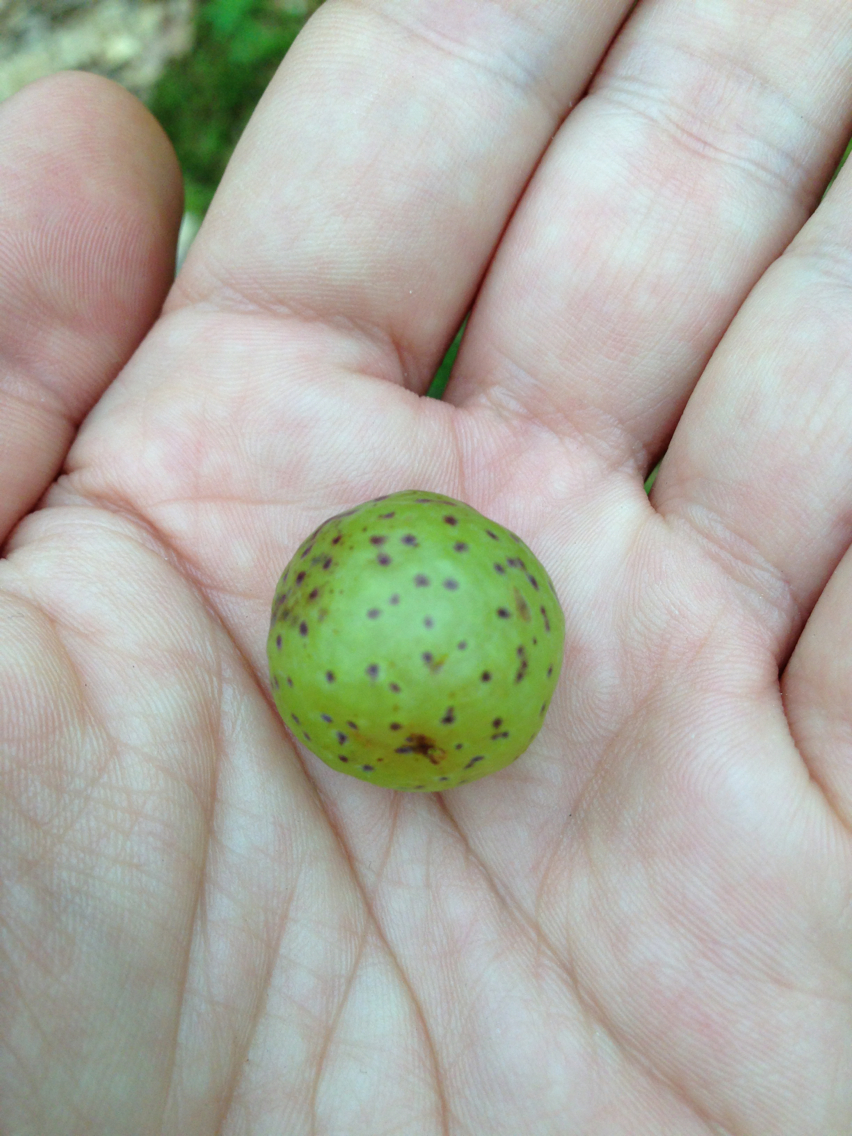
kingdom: Animalia
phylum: Arthropoda
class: Insecta
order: Hymenoptera
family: Cynipidae
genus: Amphibolips
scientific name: Amphibolips
